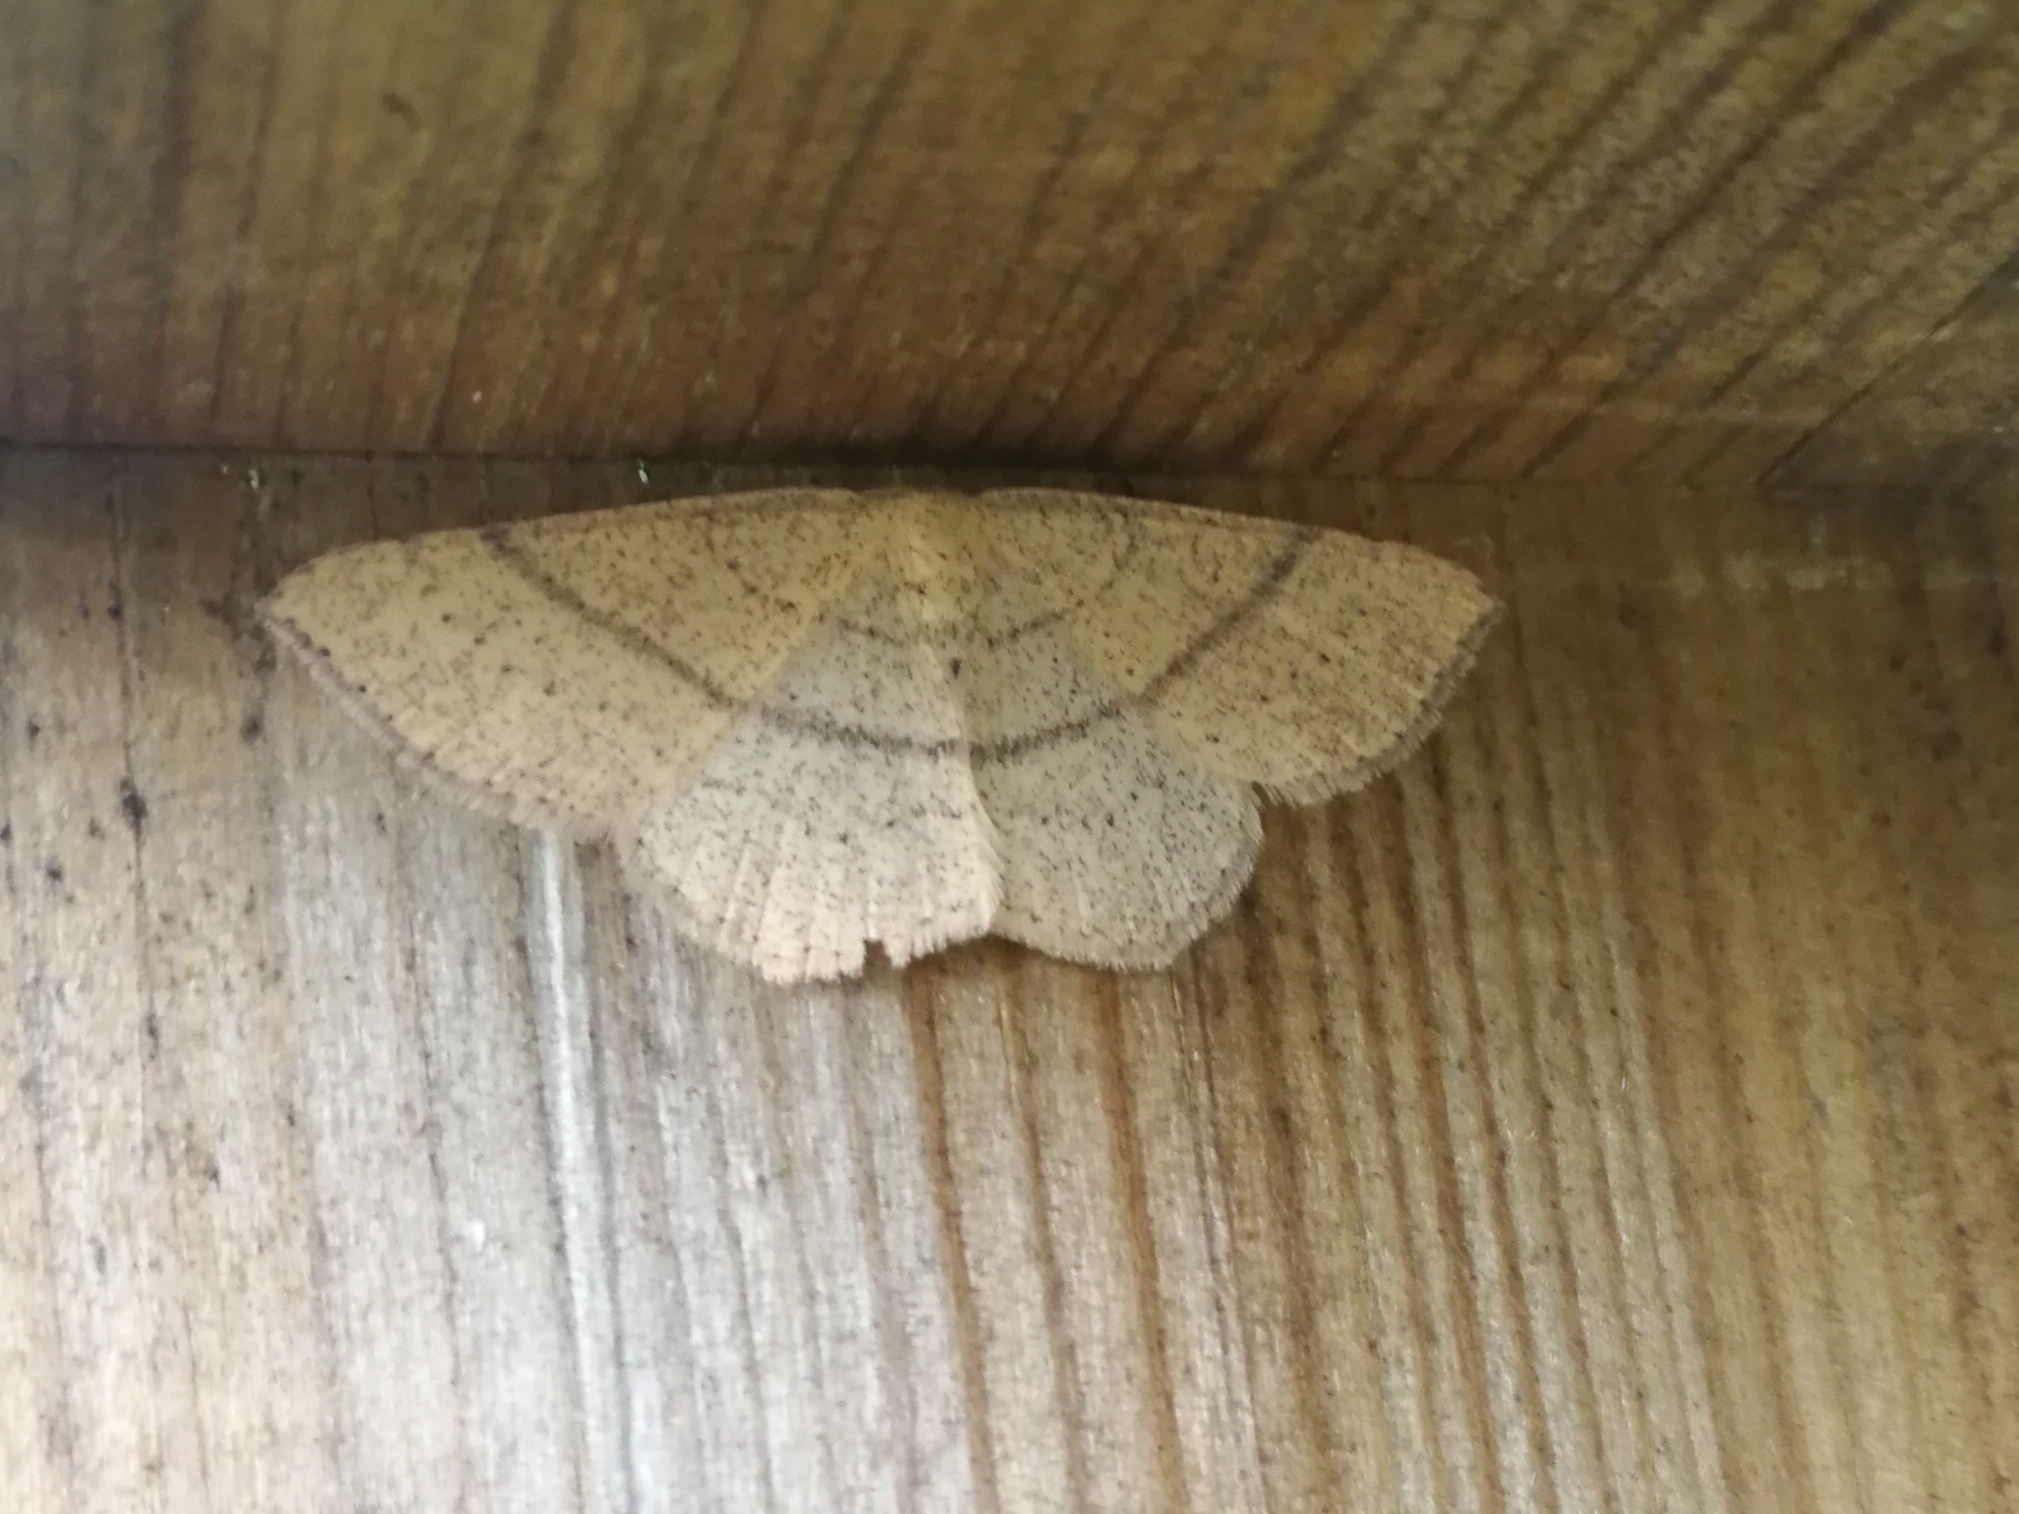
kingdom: Animalia
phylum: Arthropoda
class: Insecta
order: Lepidoptera
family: Geometridae
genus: Cyclophora
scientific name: Cyclophora suppunctaria
